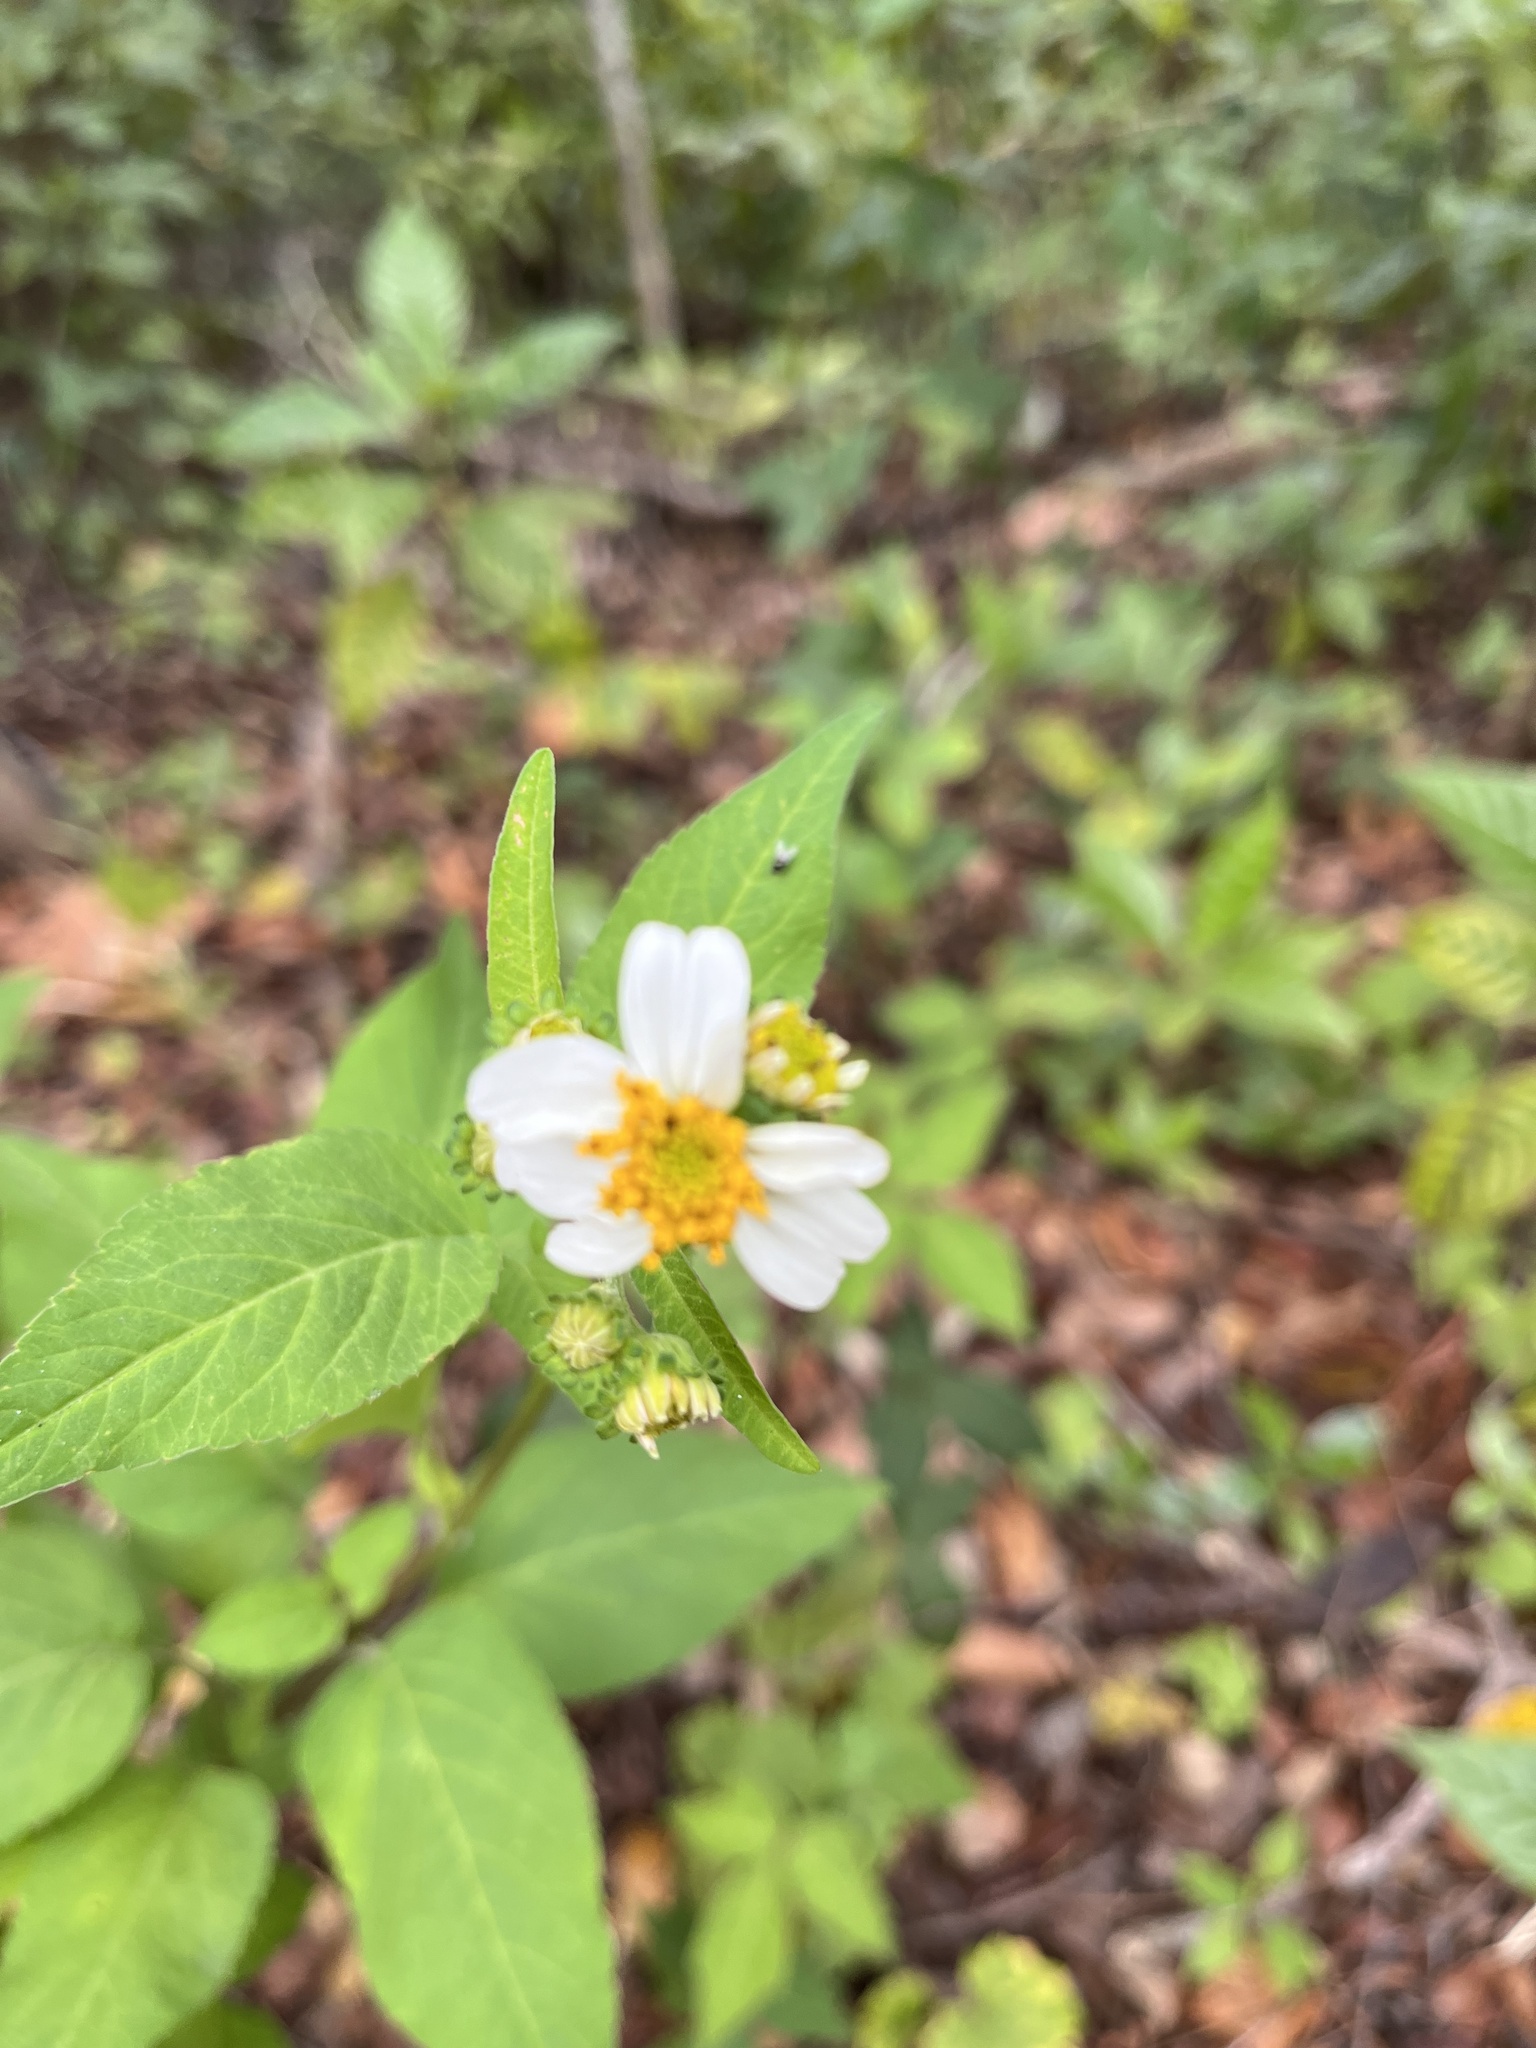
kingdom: Plantae
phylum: Tracheophyta
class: Magnoliopsida
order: Asterales
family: Asteraceae
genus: Bidens
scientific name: Bidens alba
